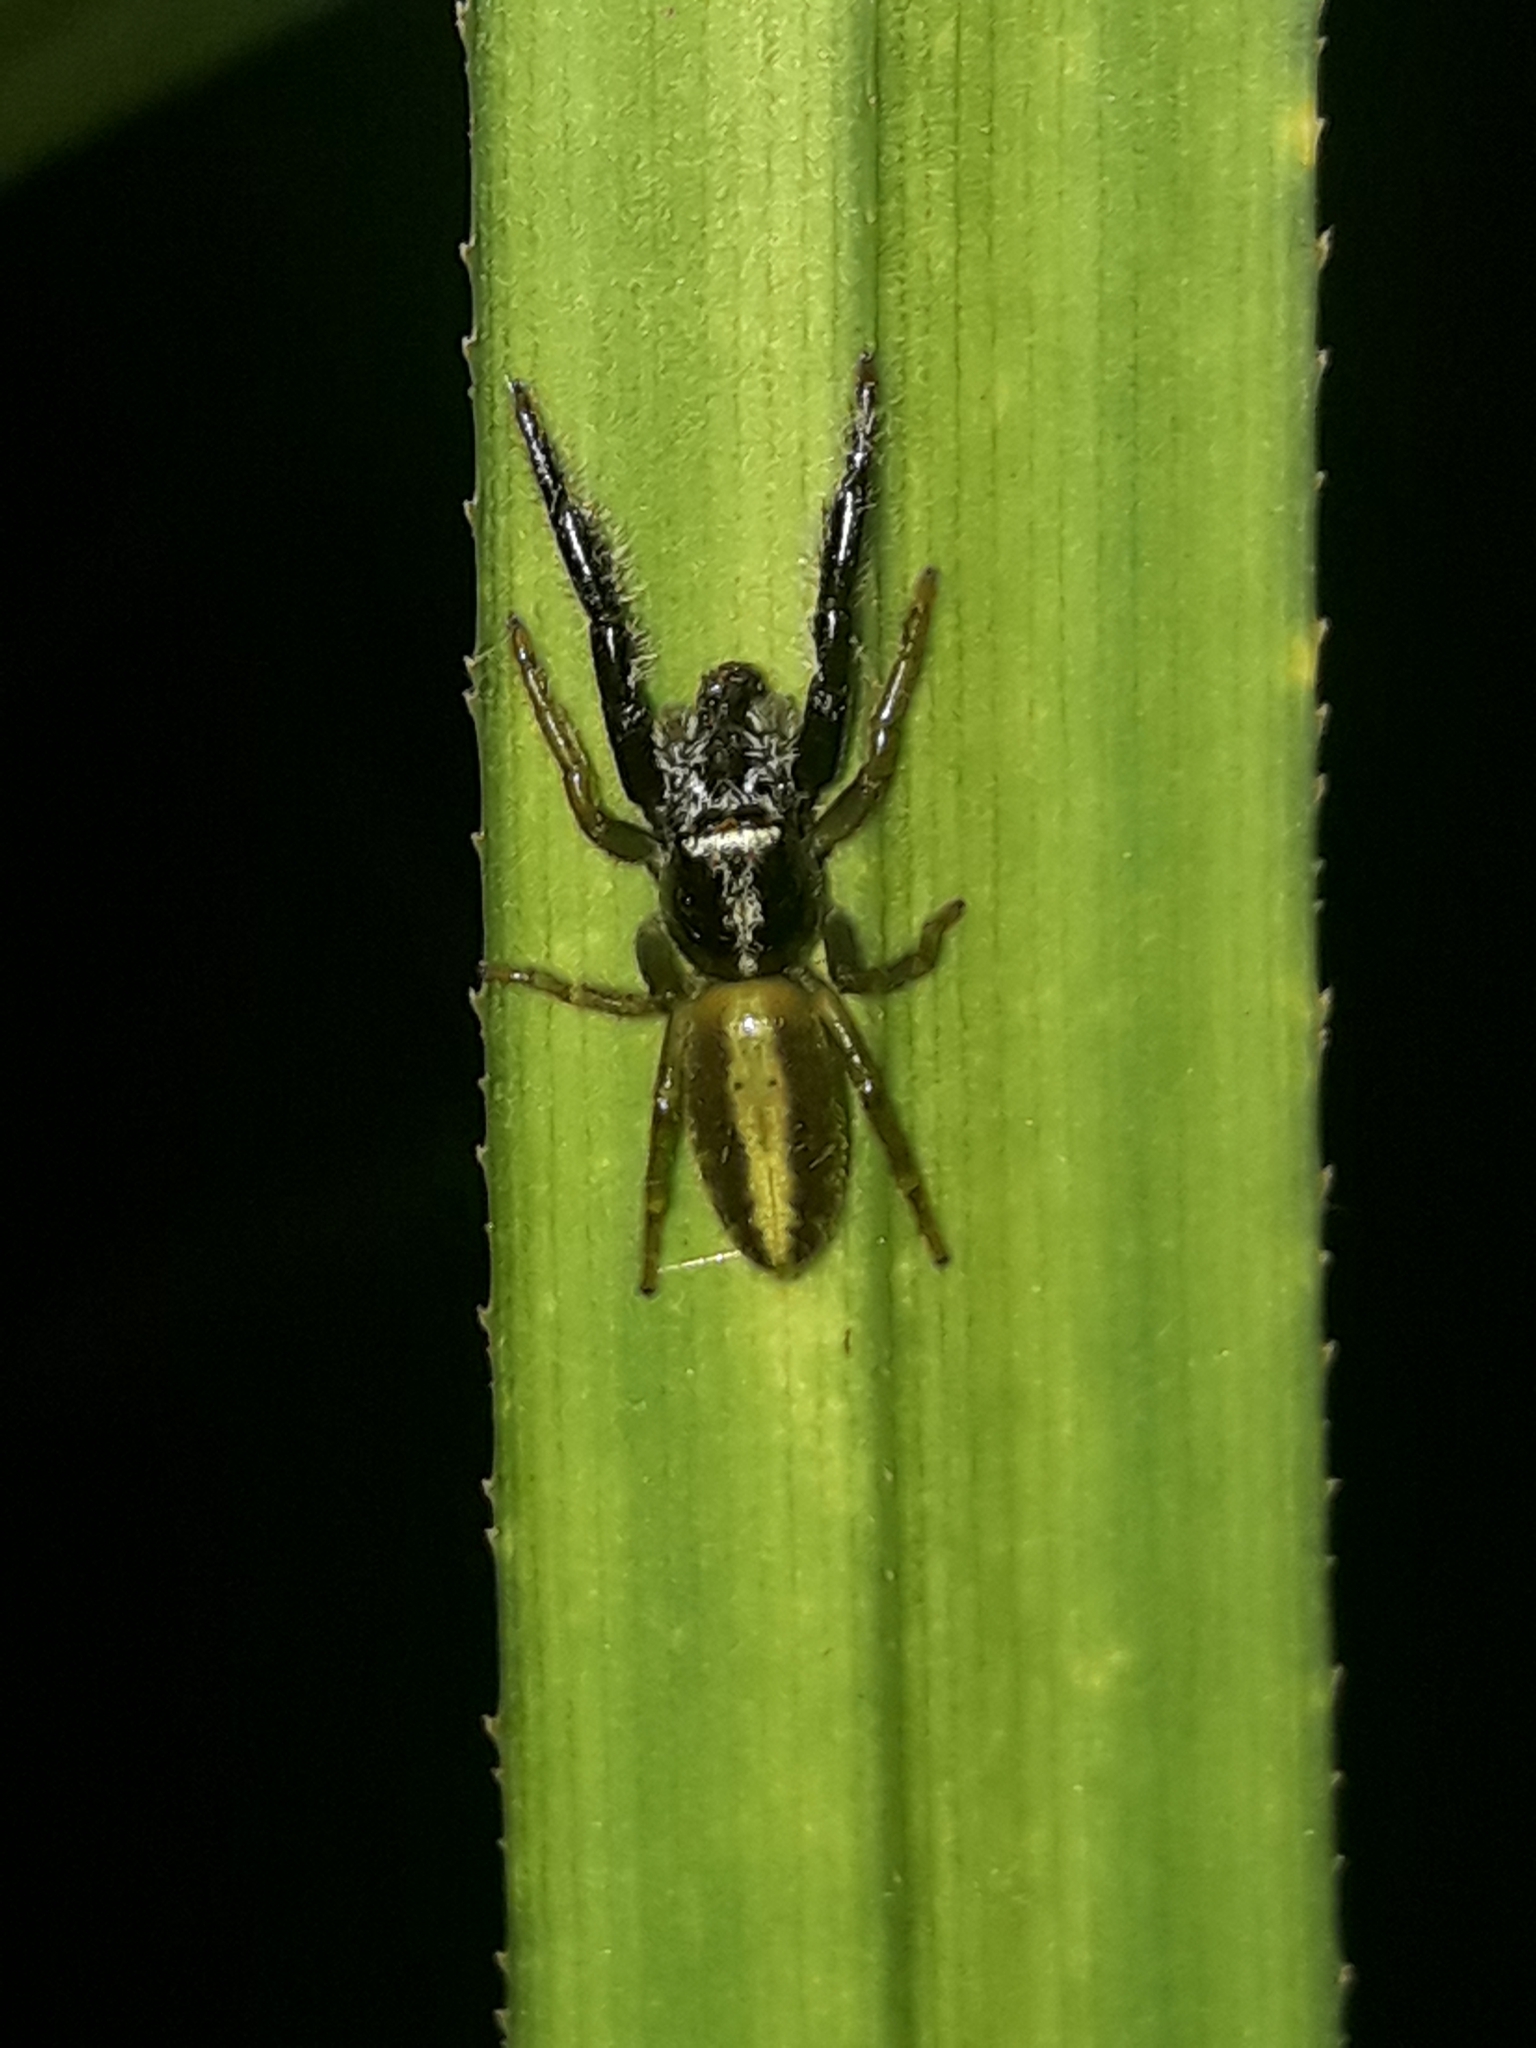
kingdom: Animalia
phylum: Arthropoda
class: Arachnida
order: Araneae
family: Salticidae
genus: Trite
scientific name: Trite planiceps
